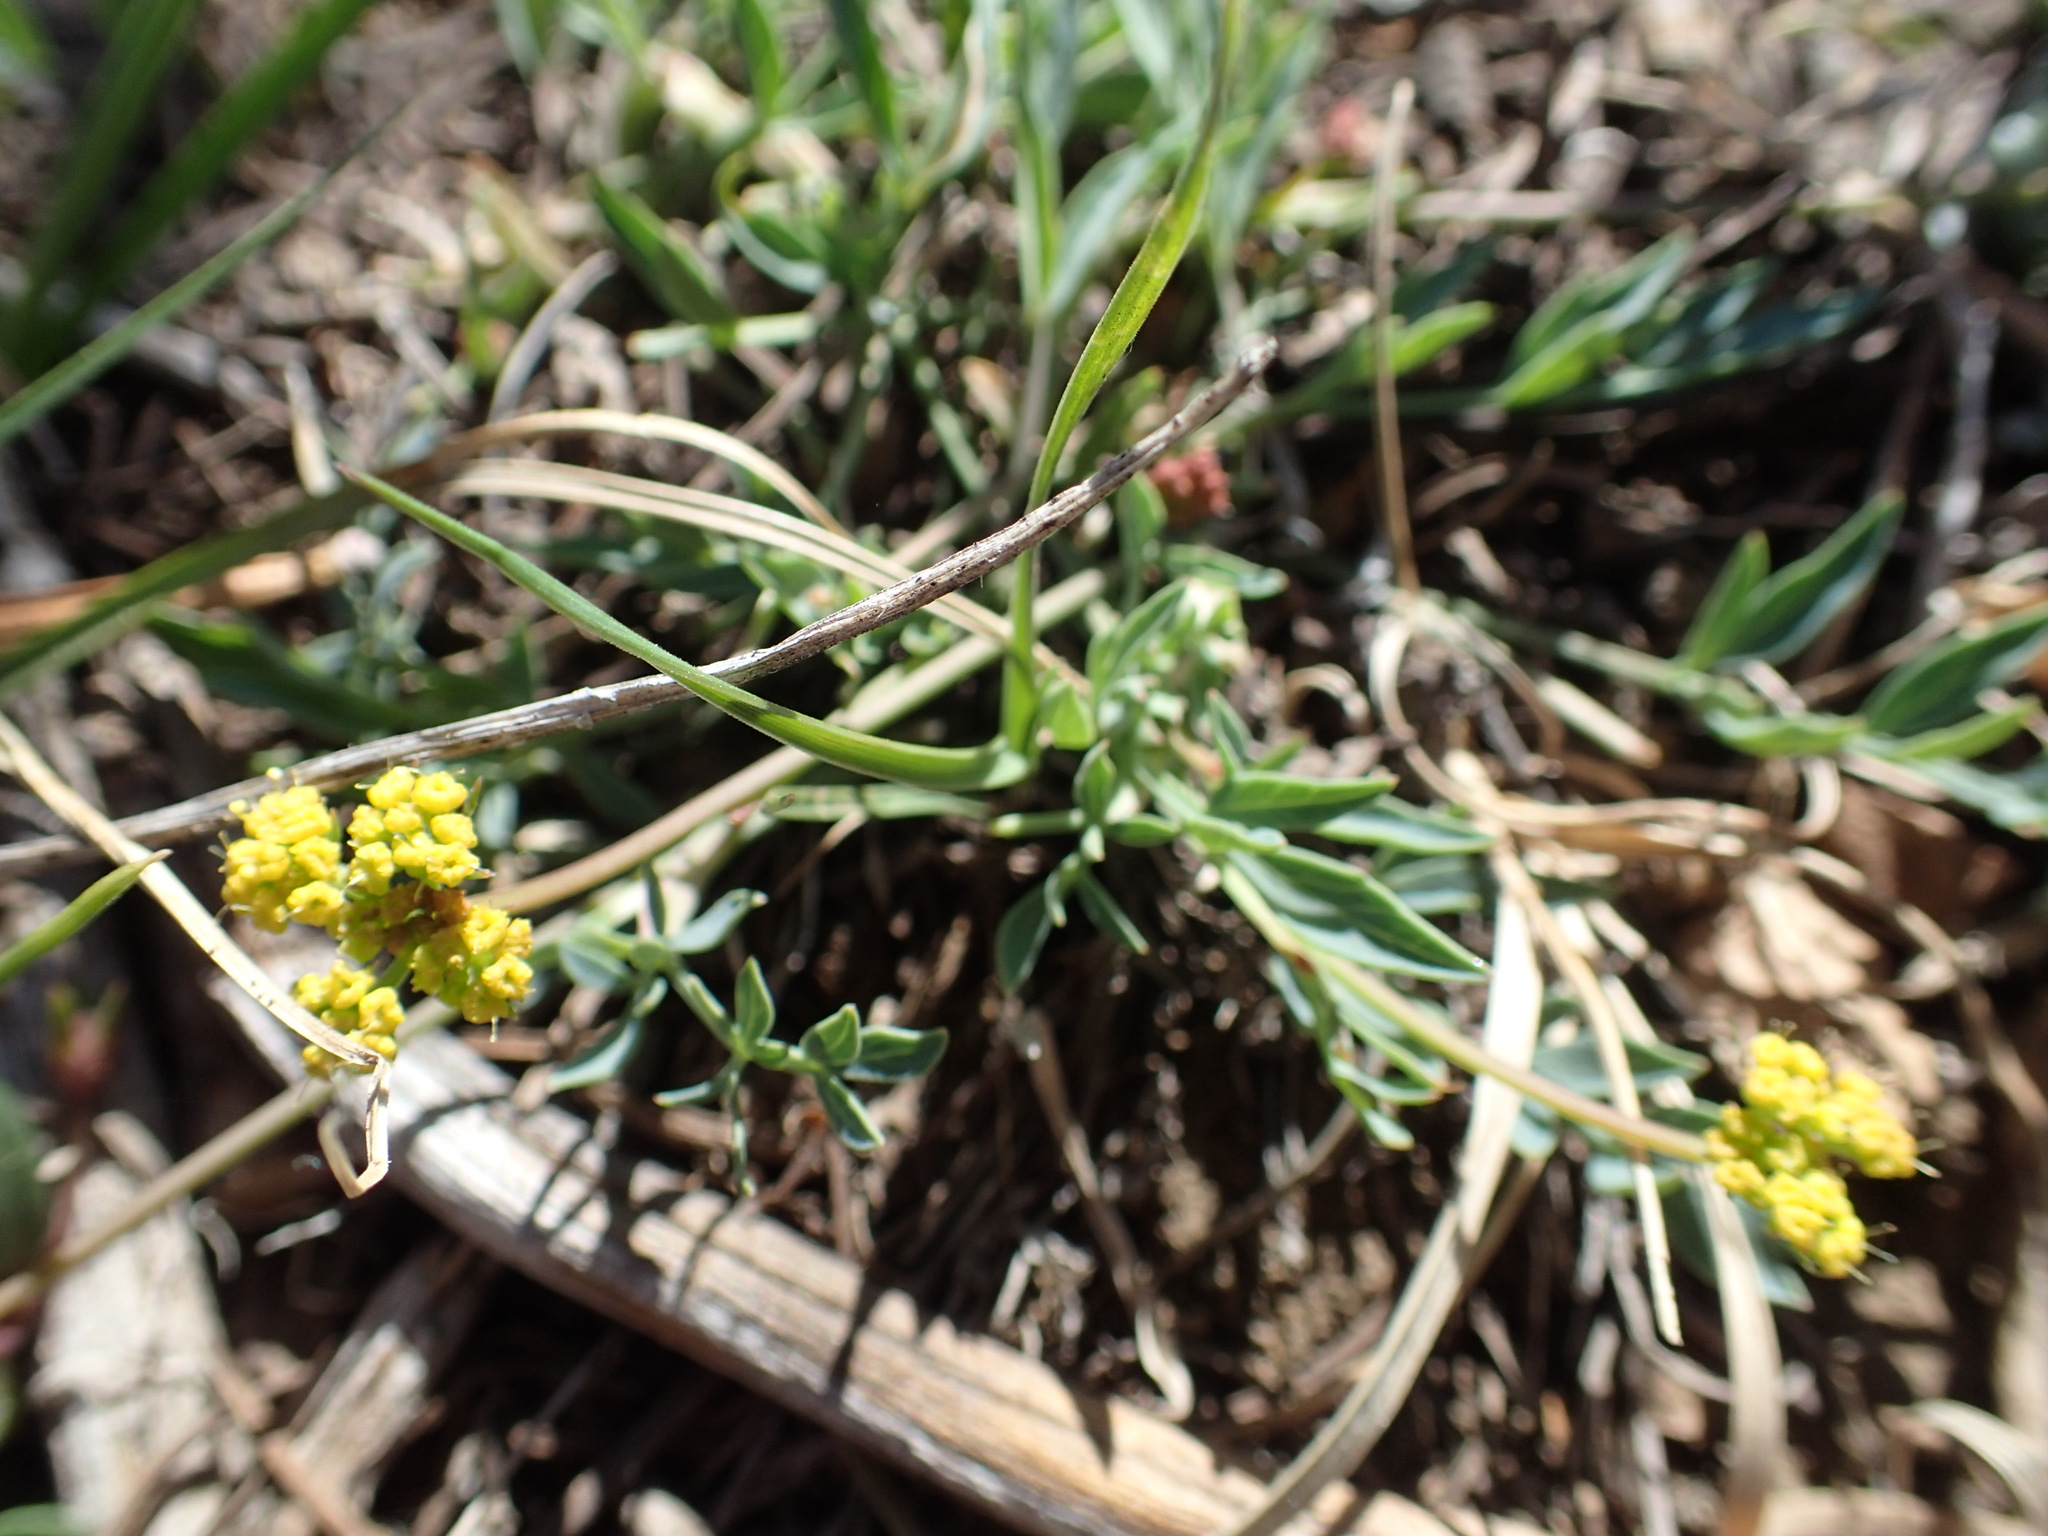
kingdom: Plantae
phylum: Tracheophyta
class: Magnoliopsida
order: Apiales
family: Apiaceae
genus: Lomatium
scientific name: Lomatium greenmanii
